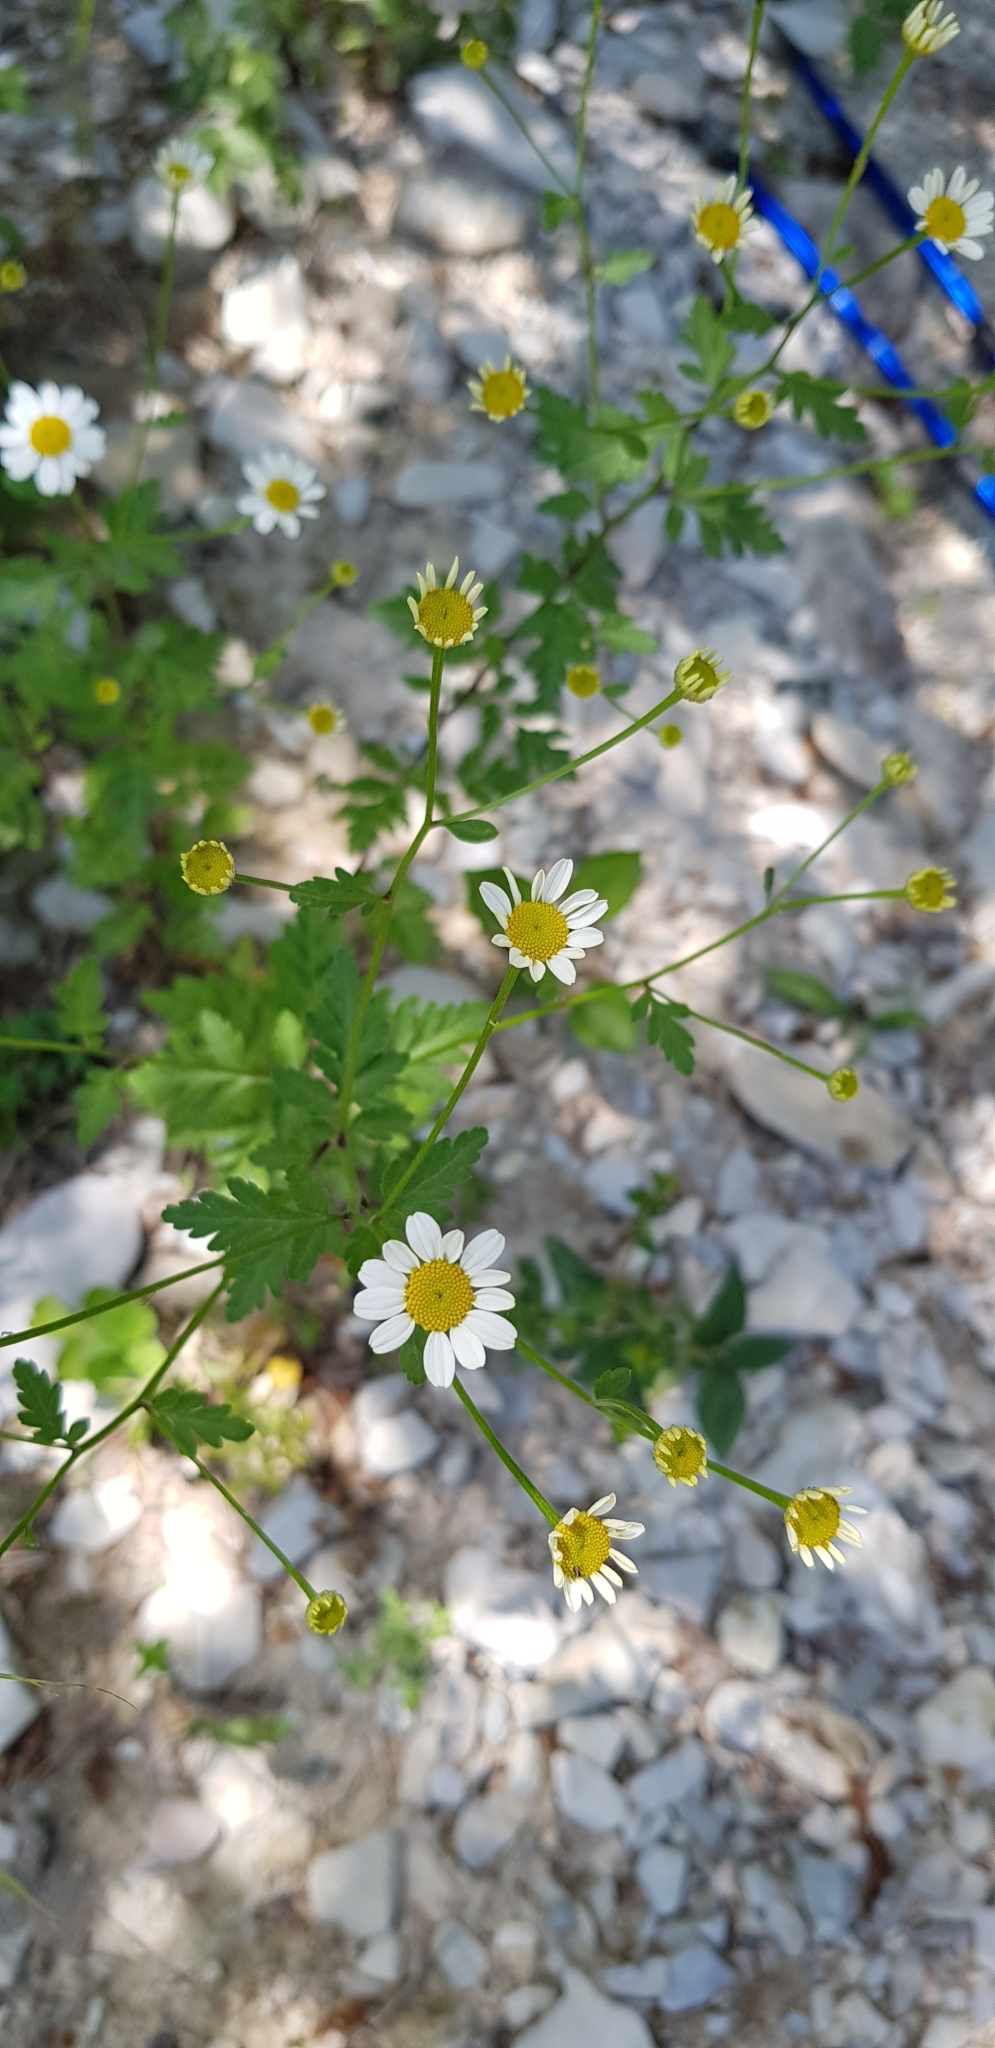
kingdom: Plantae
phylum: Tracheophyta
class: Magnoliopsida
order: Asterales
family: Asteraceae
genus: Tanacetum
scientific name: Tanacetum partheniifolium
